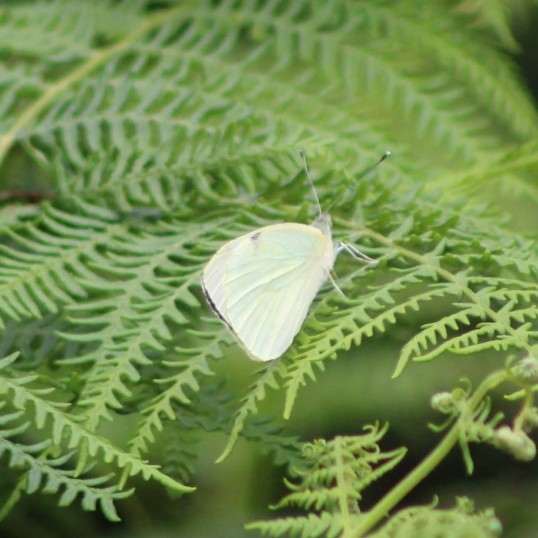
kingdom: Animalia
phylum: Arthropoda
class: Insecta
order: Lepidoptera
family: Pieridae
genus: Pieris
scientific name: Pieris brassicae
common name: Large white
